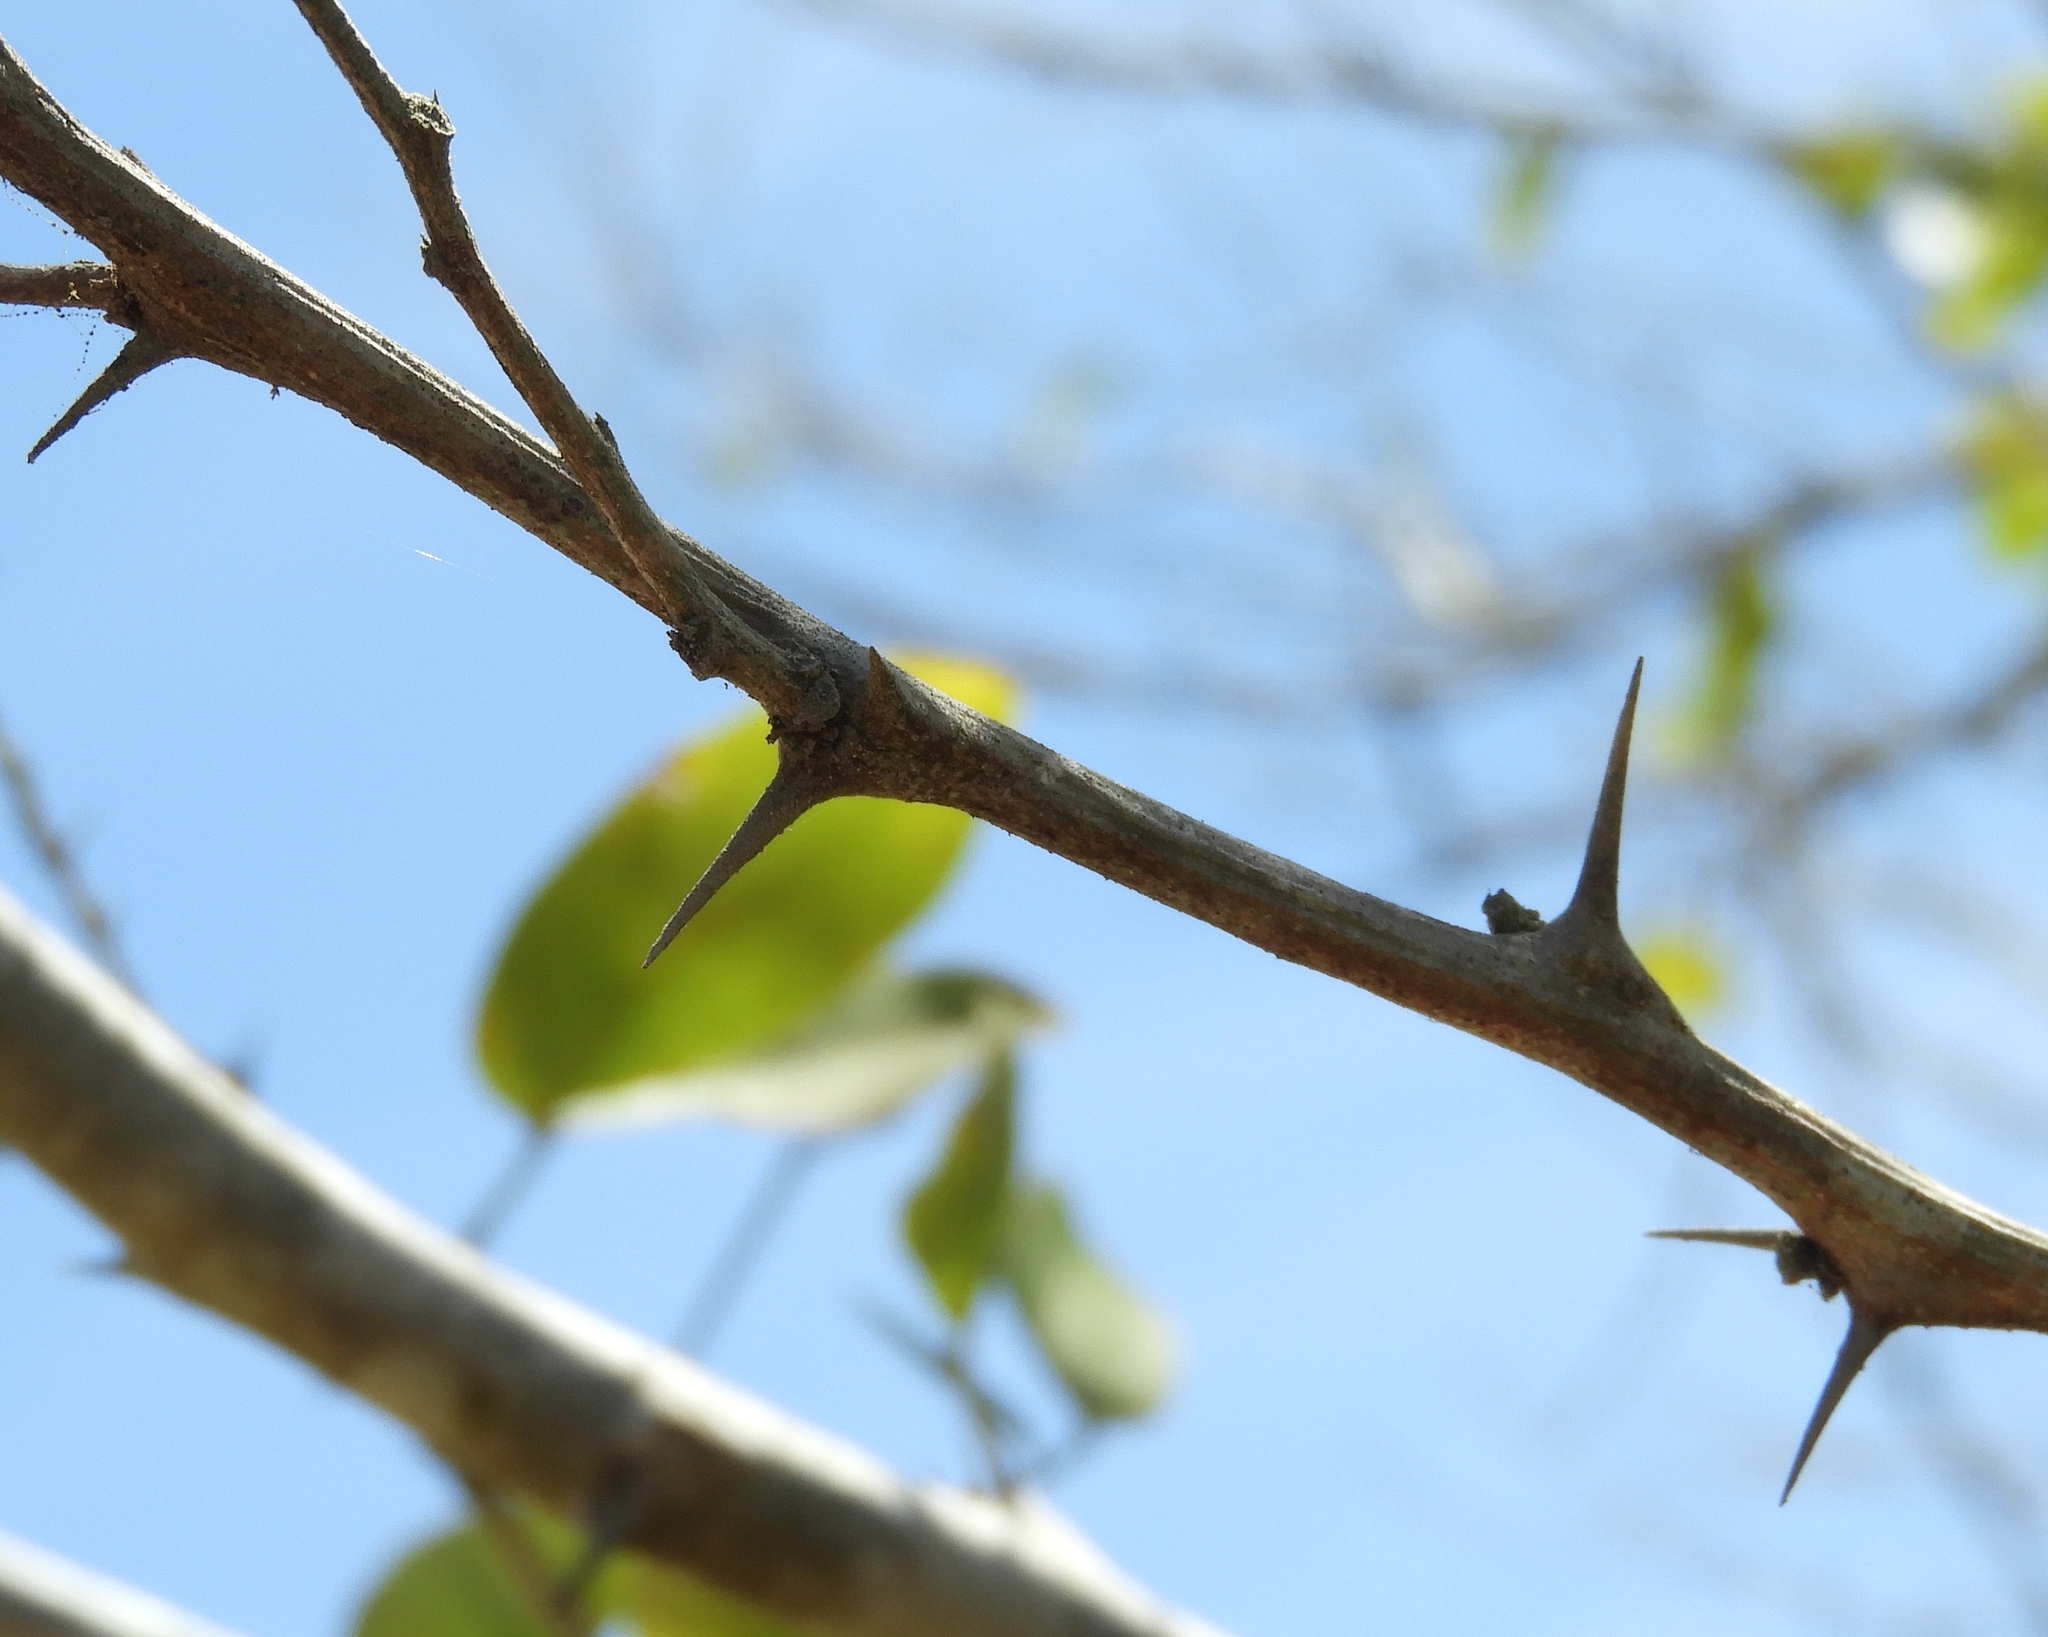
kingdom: Plantae
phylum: Tracheophyta
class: Magnoliopsida
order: Fabales
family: Fabaceae
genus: Pithecellobium
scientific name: Pithecellobium dulce
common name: Monkeypod
